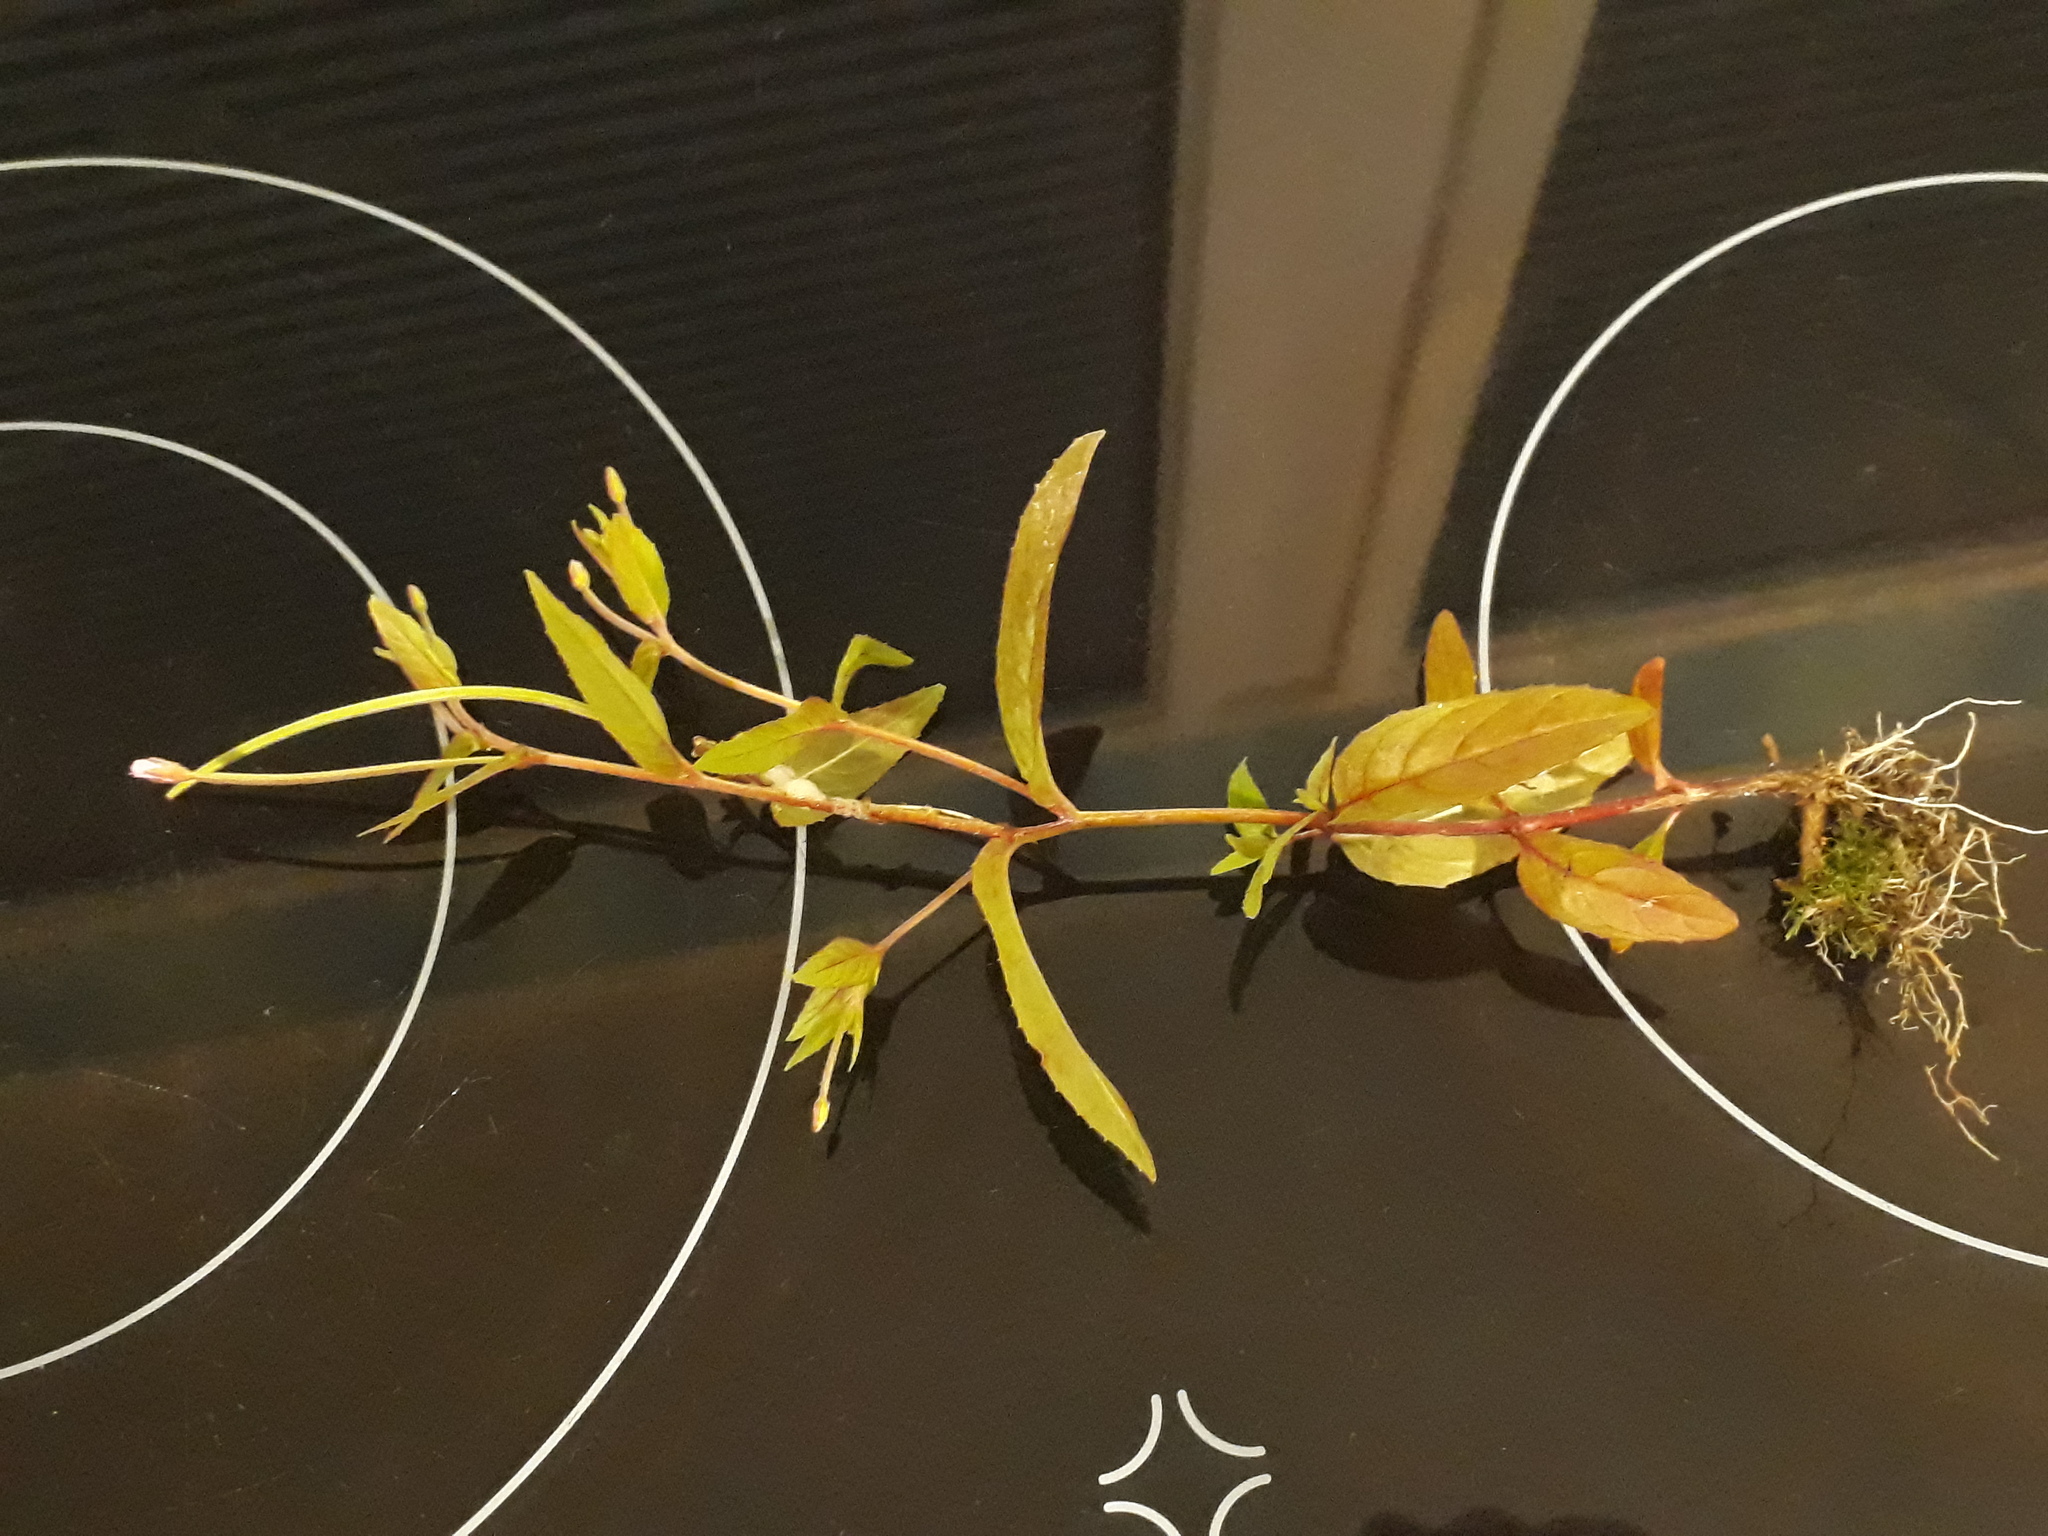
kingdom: Plantae
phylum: Tracheophyta
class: Magnoliopsida
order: Myrtales
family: Onagraceae
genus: Epilobium
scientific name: Epilobium ciliatum
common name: American willowherb
